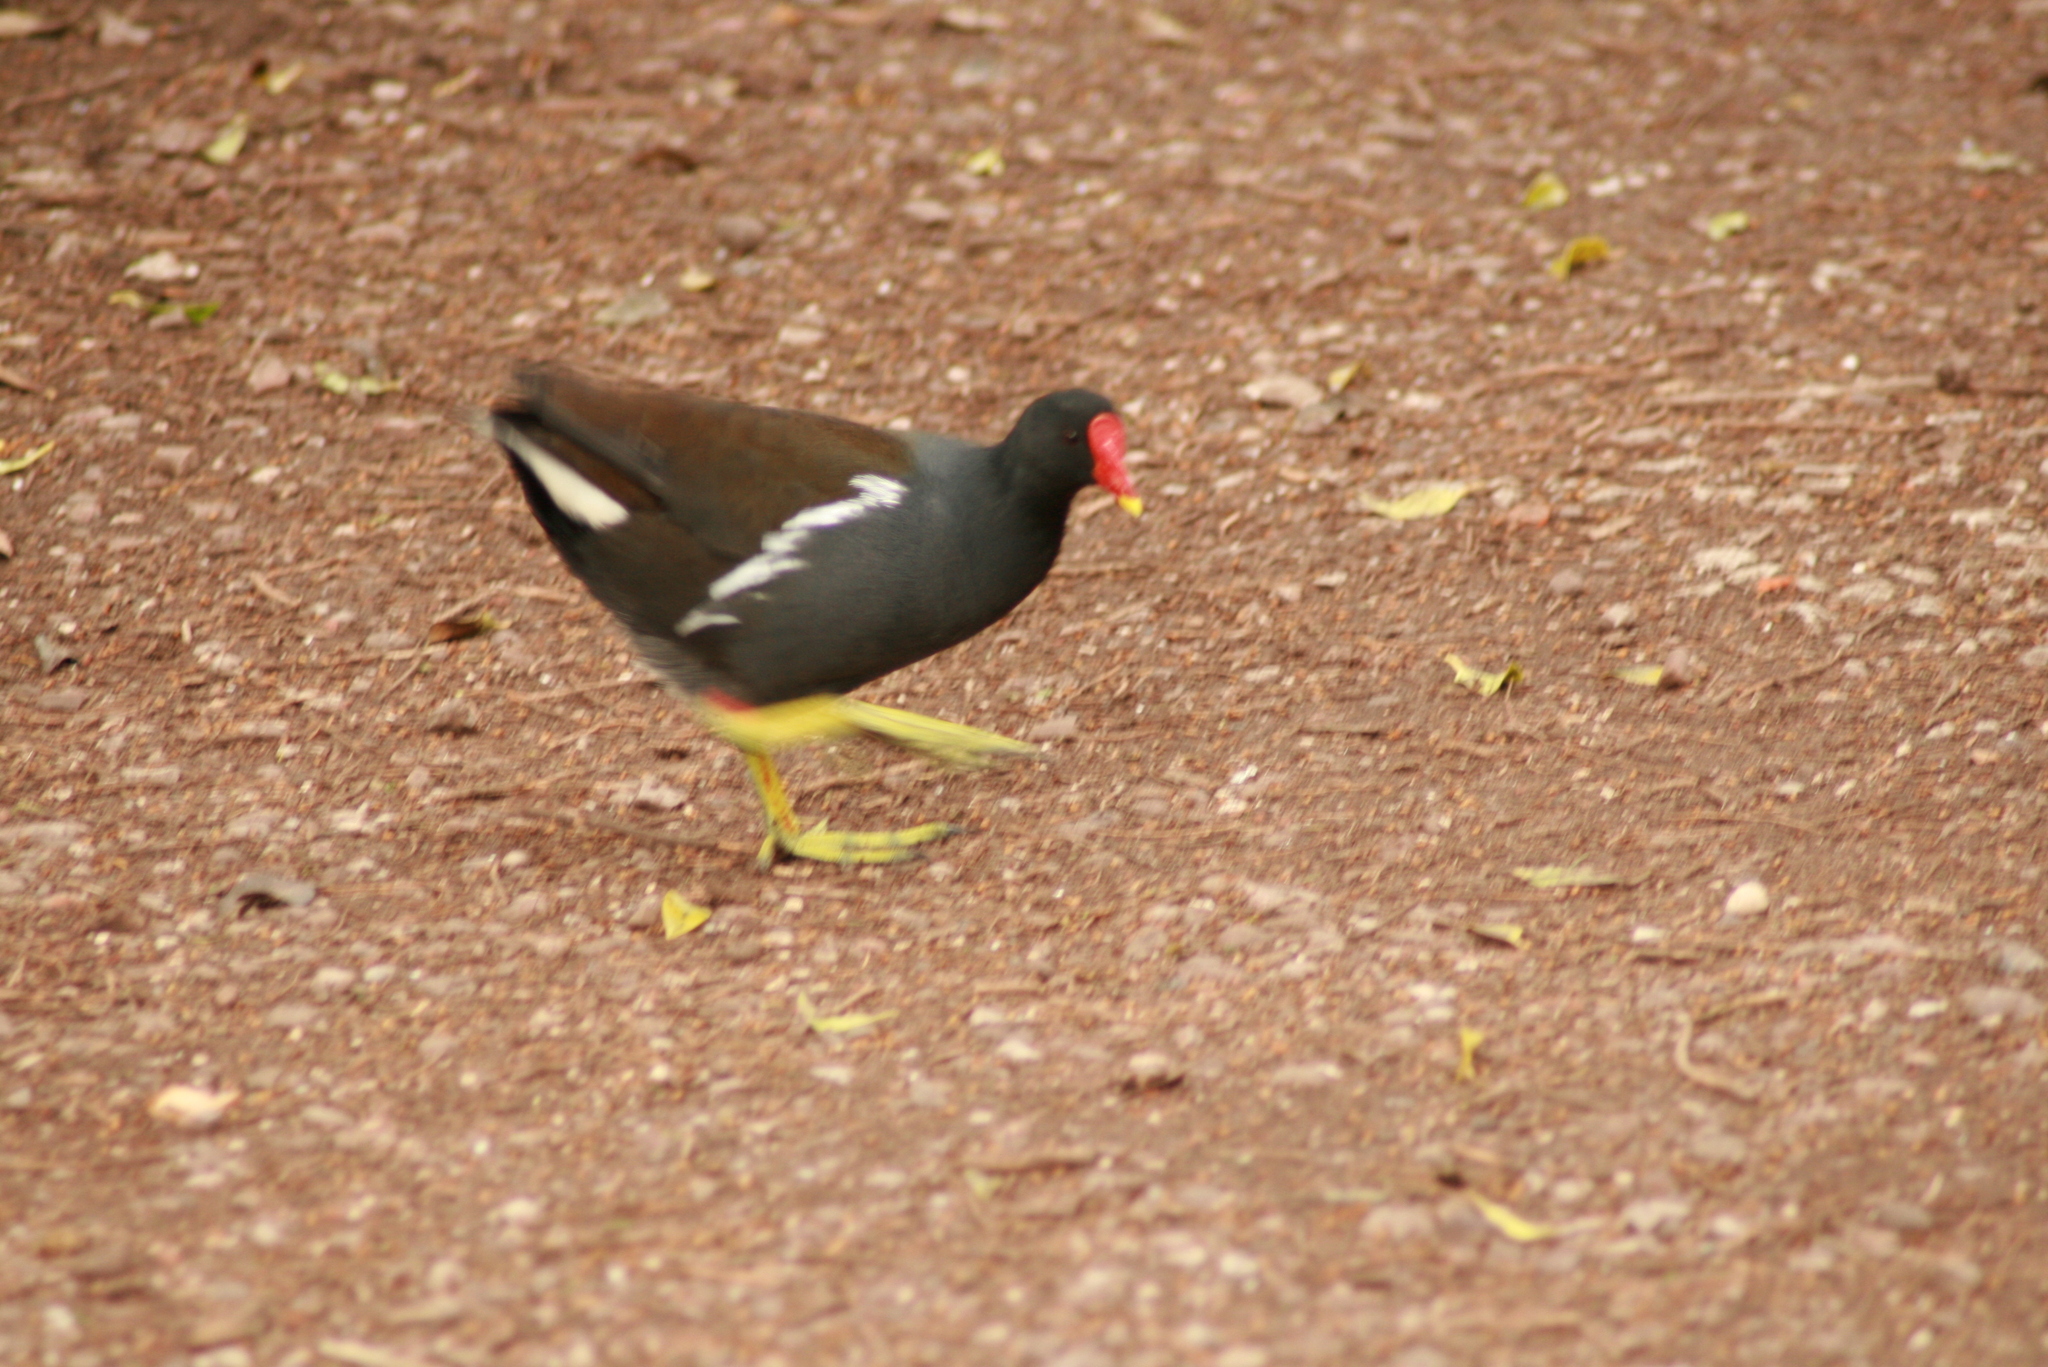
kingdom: Animalia
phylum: Chordata
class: Aves
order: Gruiformes
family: Rallidae
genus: Gallinula
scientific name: Gallinula chloropus
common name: Common moorhen
